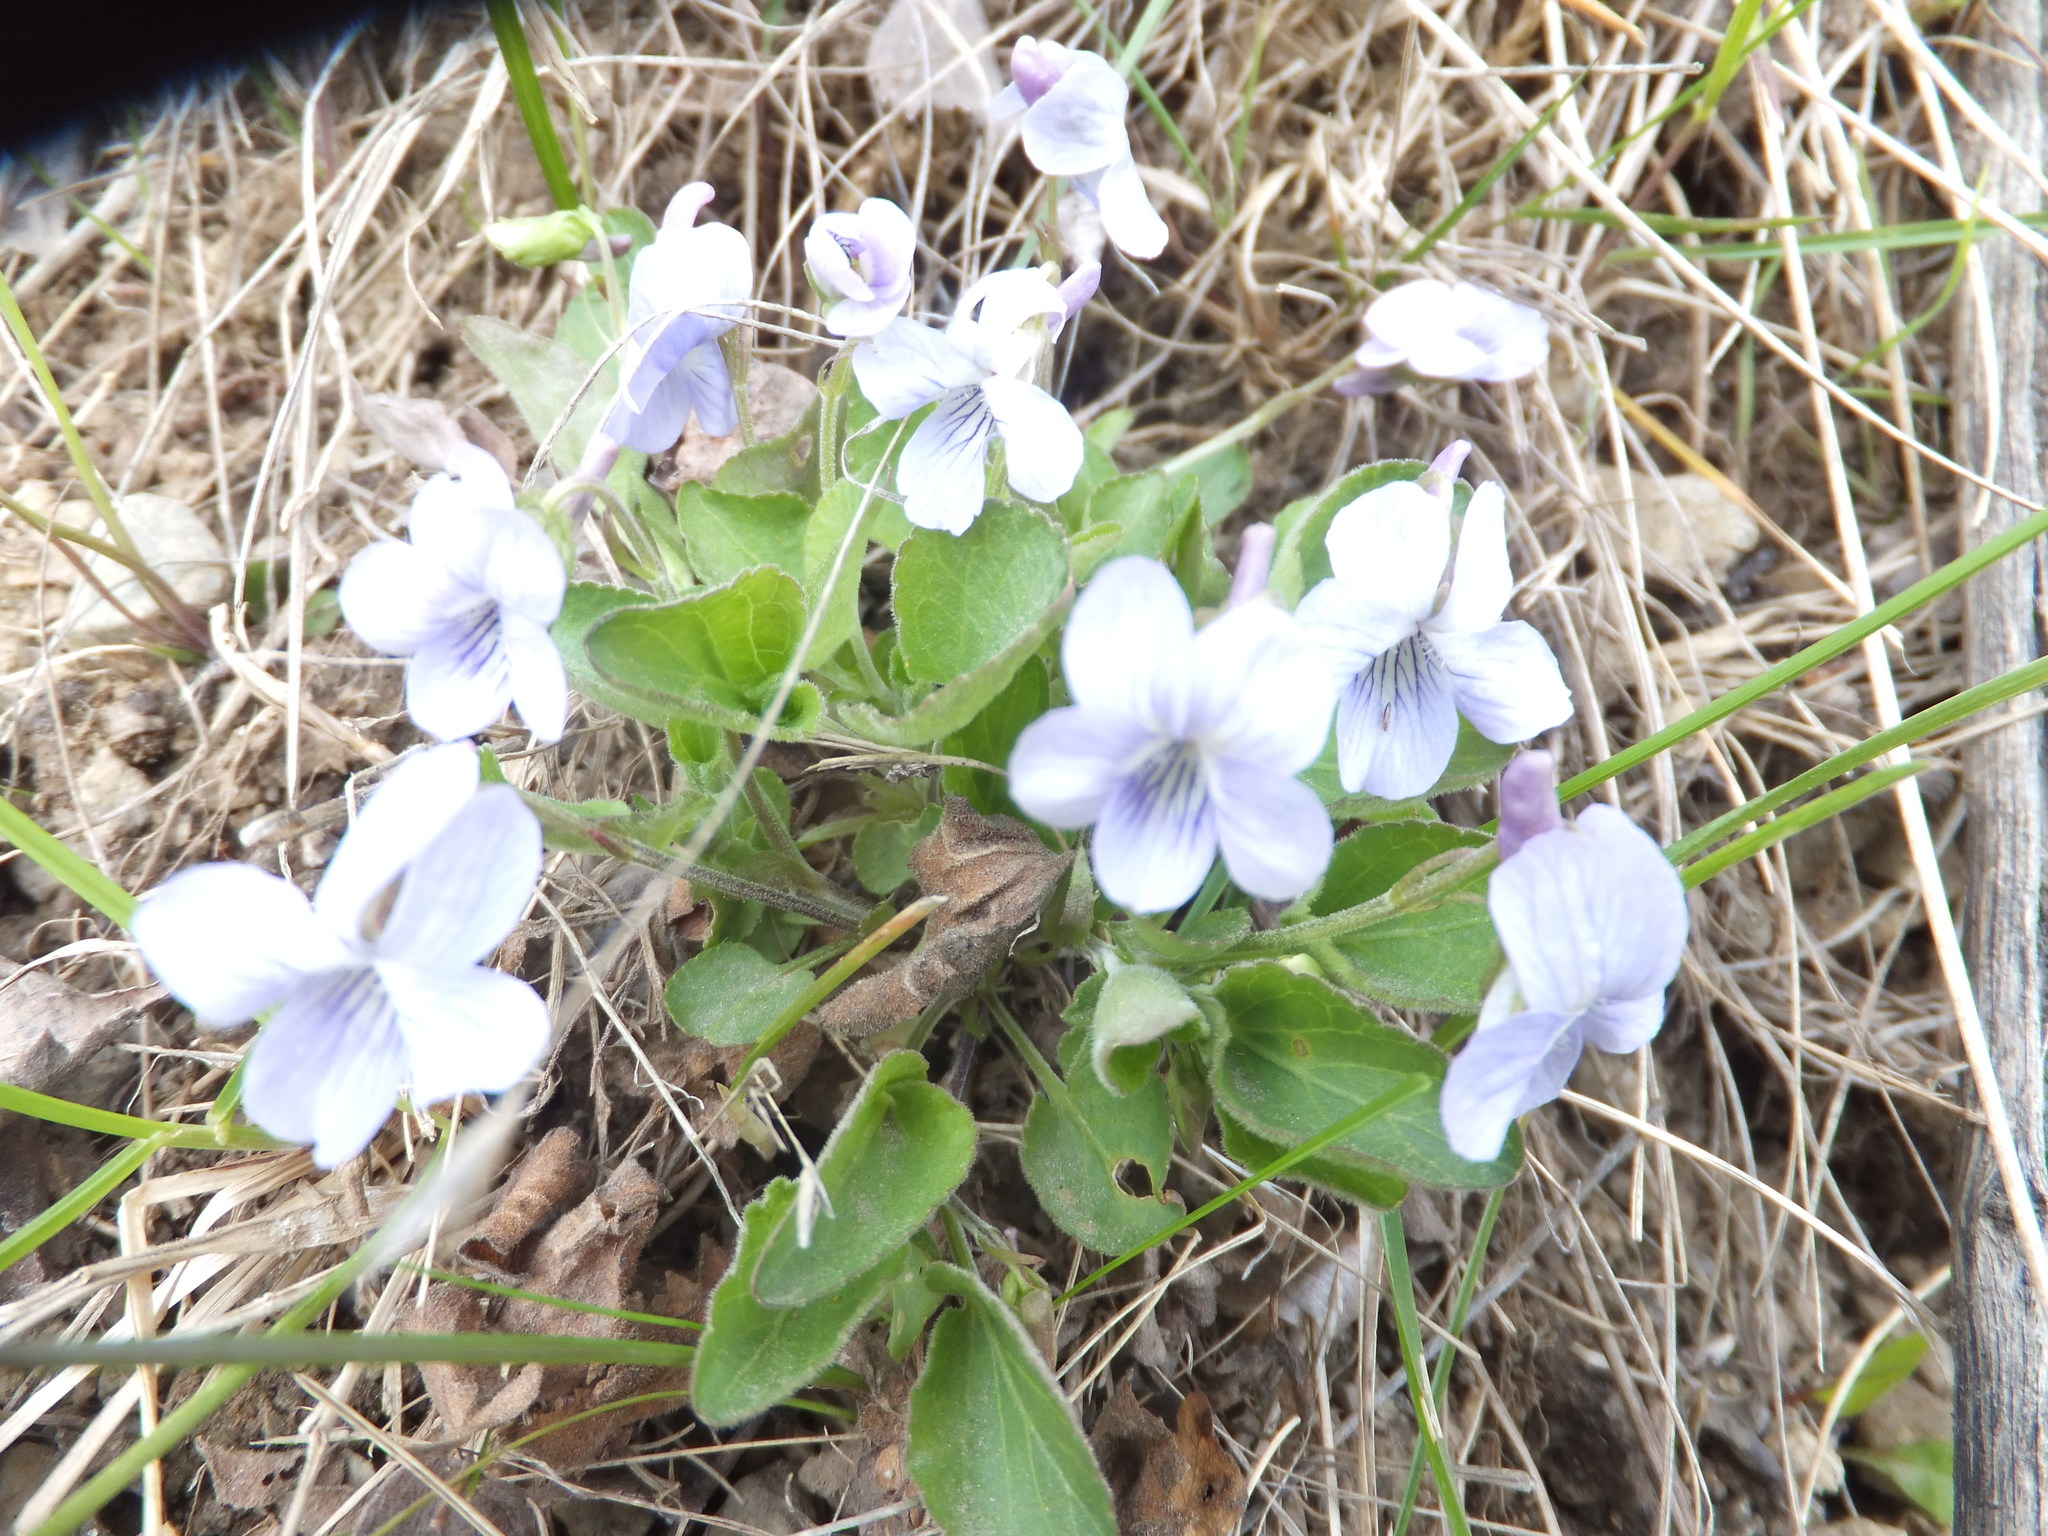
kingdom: Plantae
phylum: Tracheophyta
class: Magnoliopsida
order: Malpighiales
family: Violaceae
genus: Viola
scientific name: Viola adunca
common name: Sand violet
